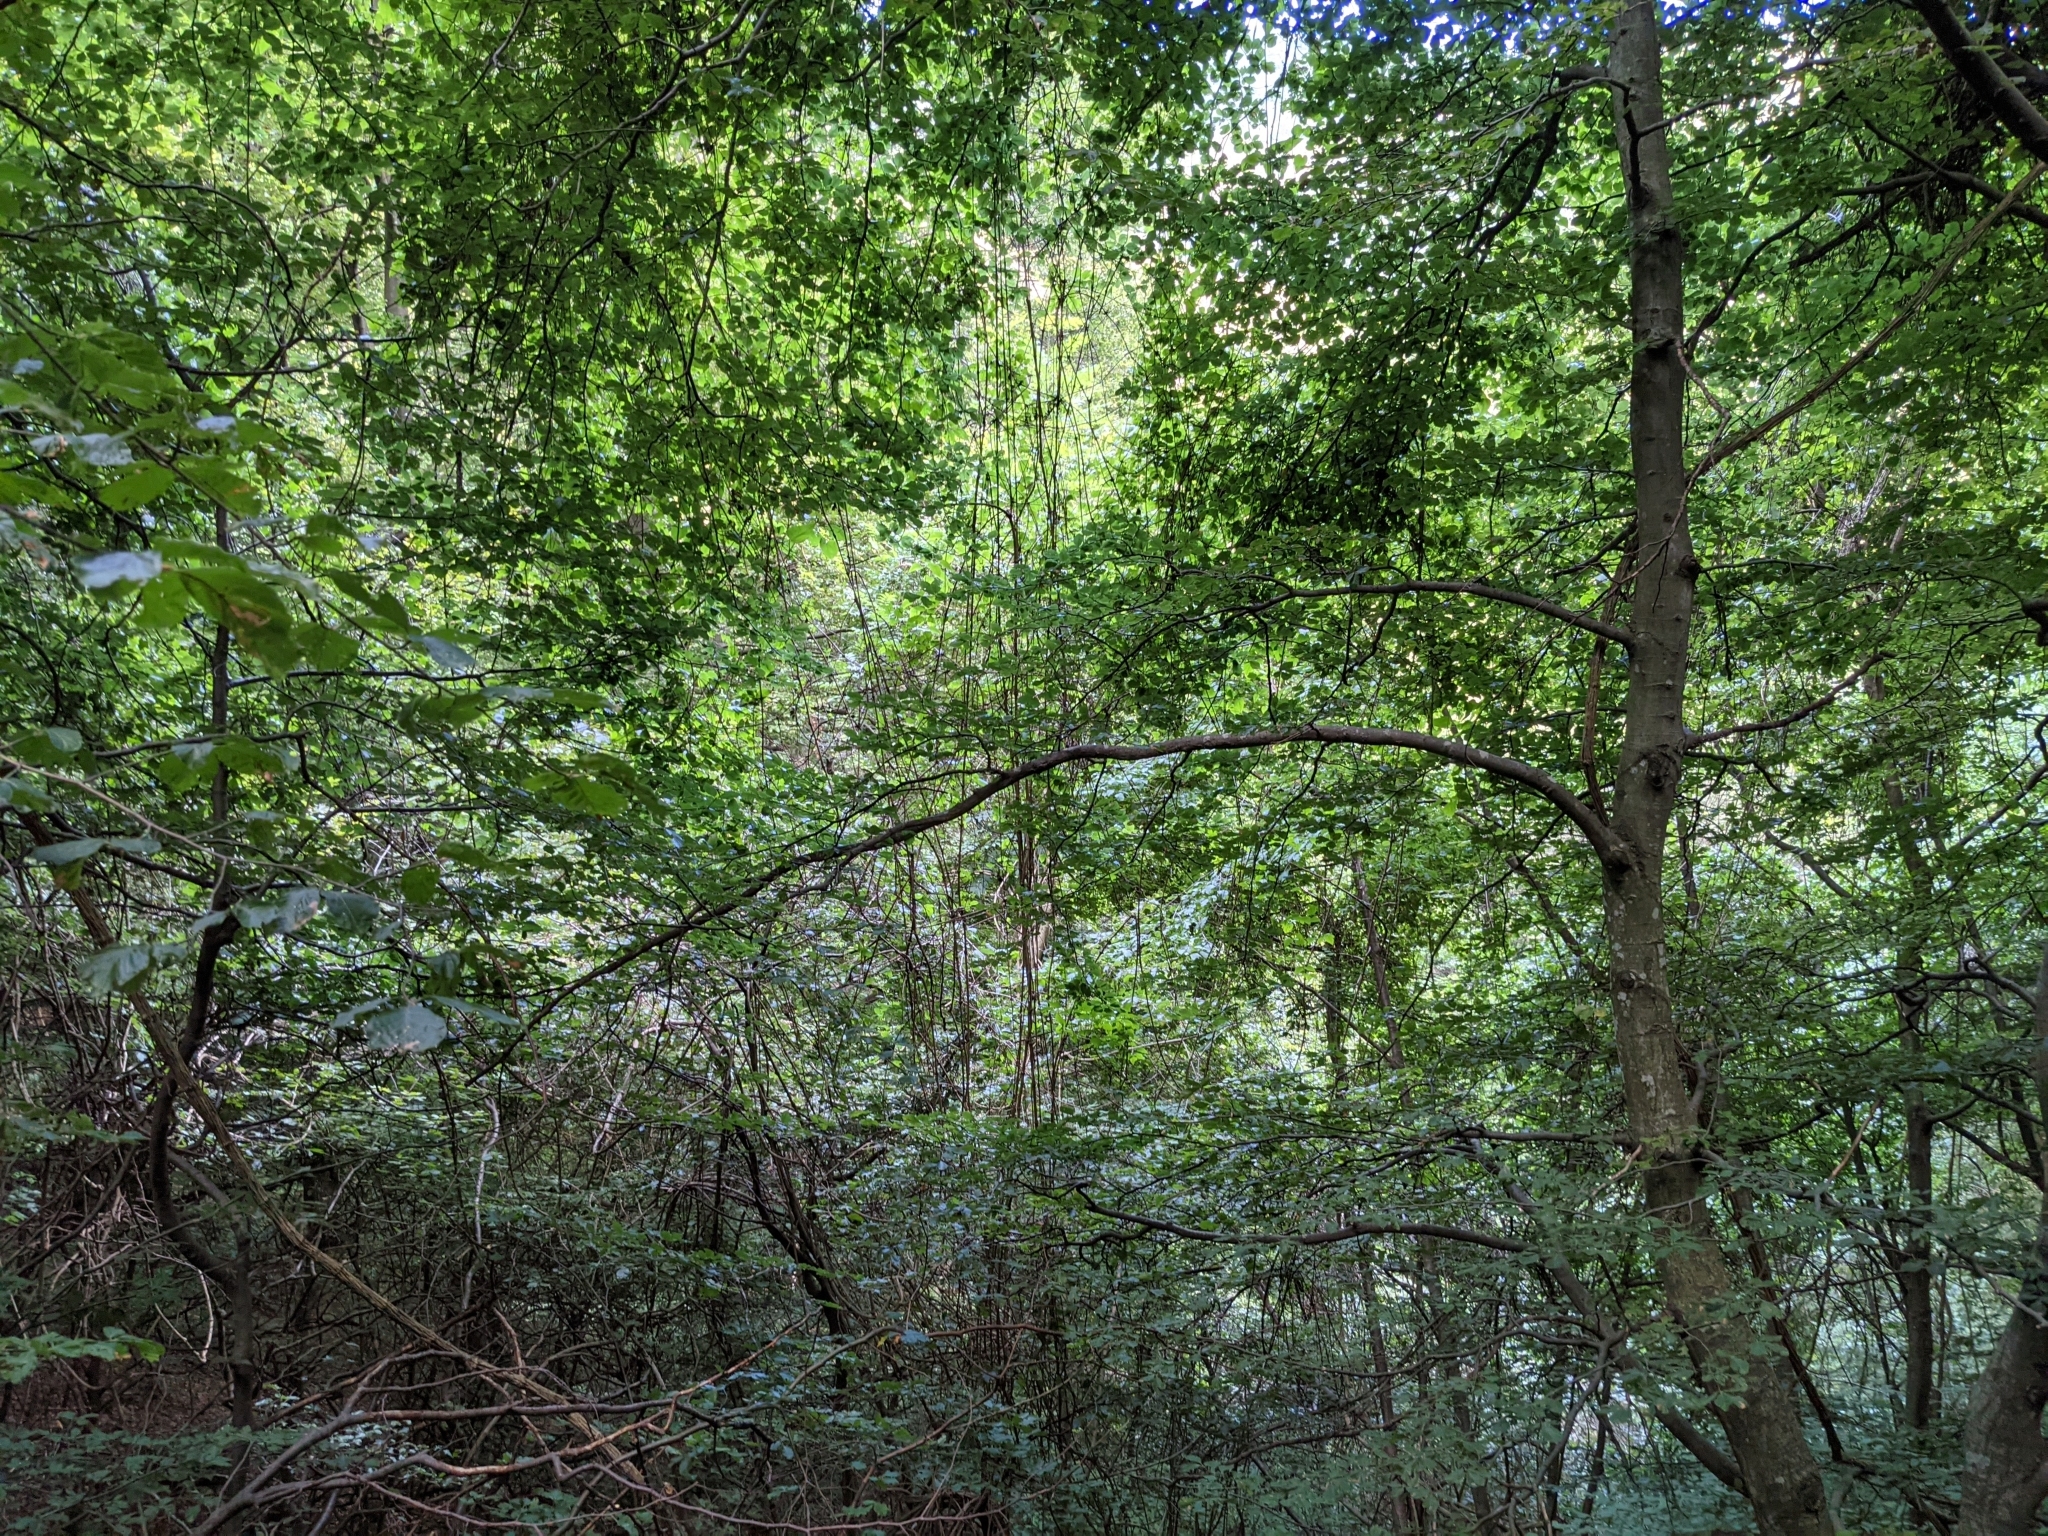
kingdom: Plantae
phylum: Tracheophyta
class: Magnoliopsida
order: Ranunculales
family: Ranunculaceae
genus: Clematis
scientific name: Clematis vitalba
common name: Evergreen clematis
